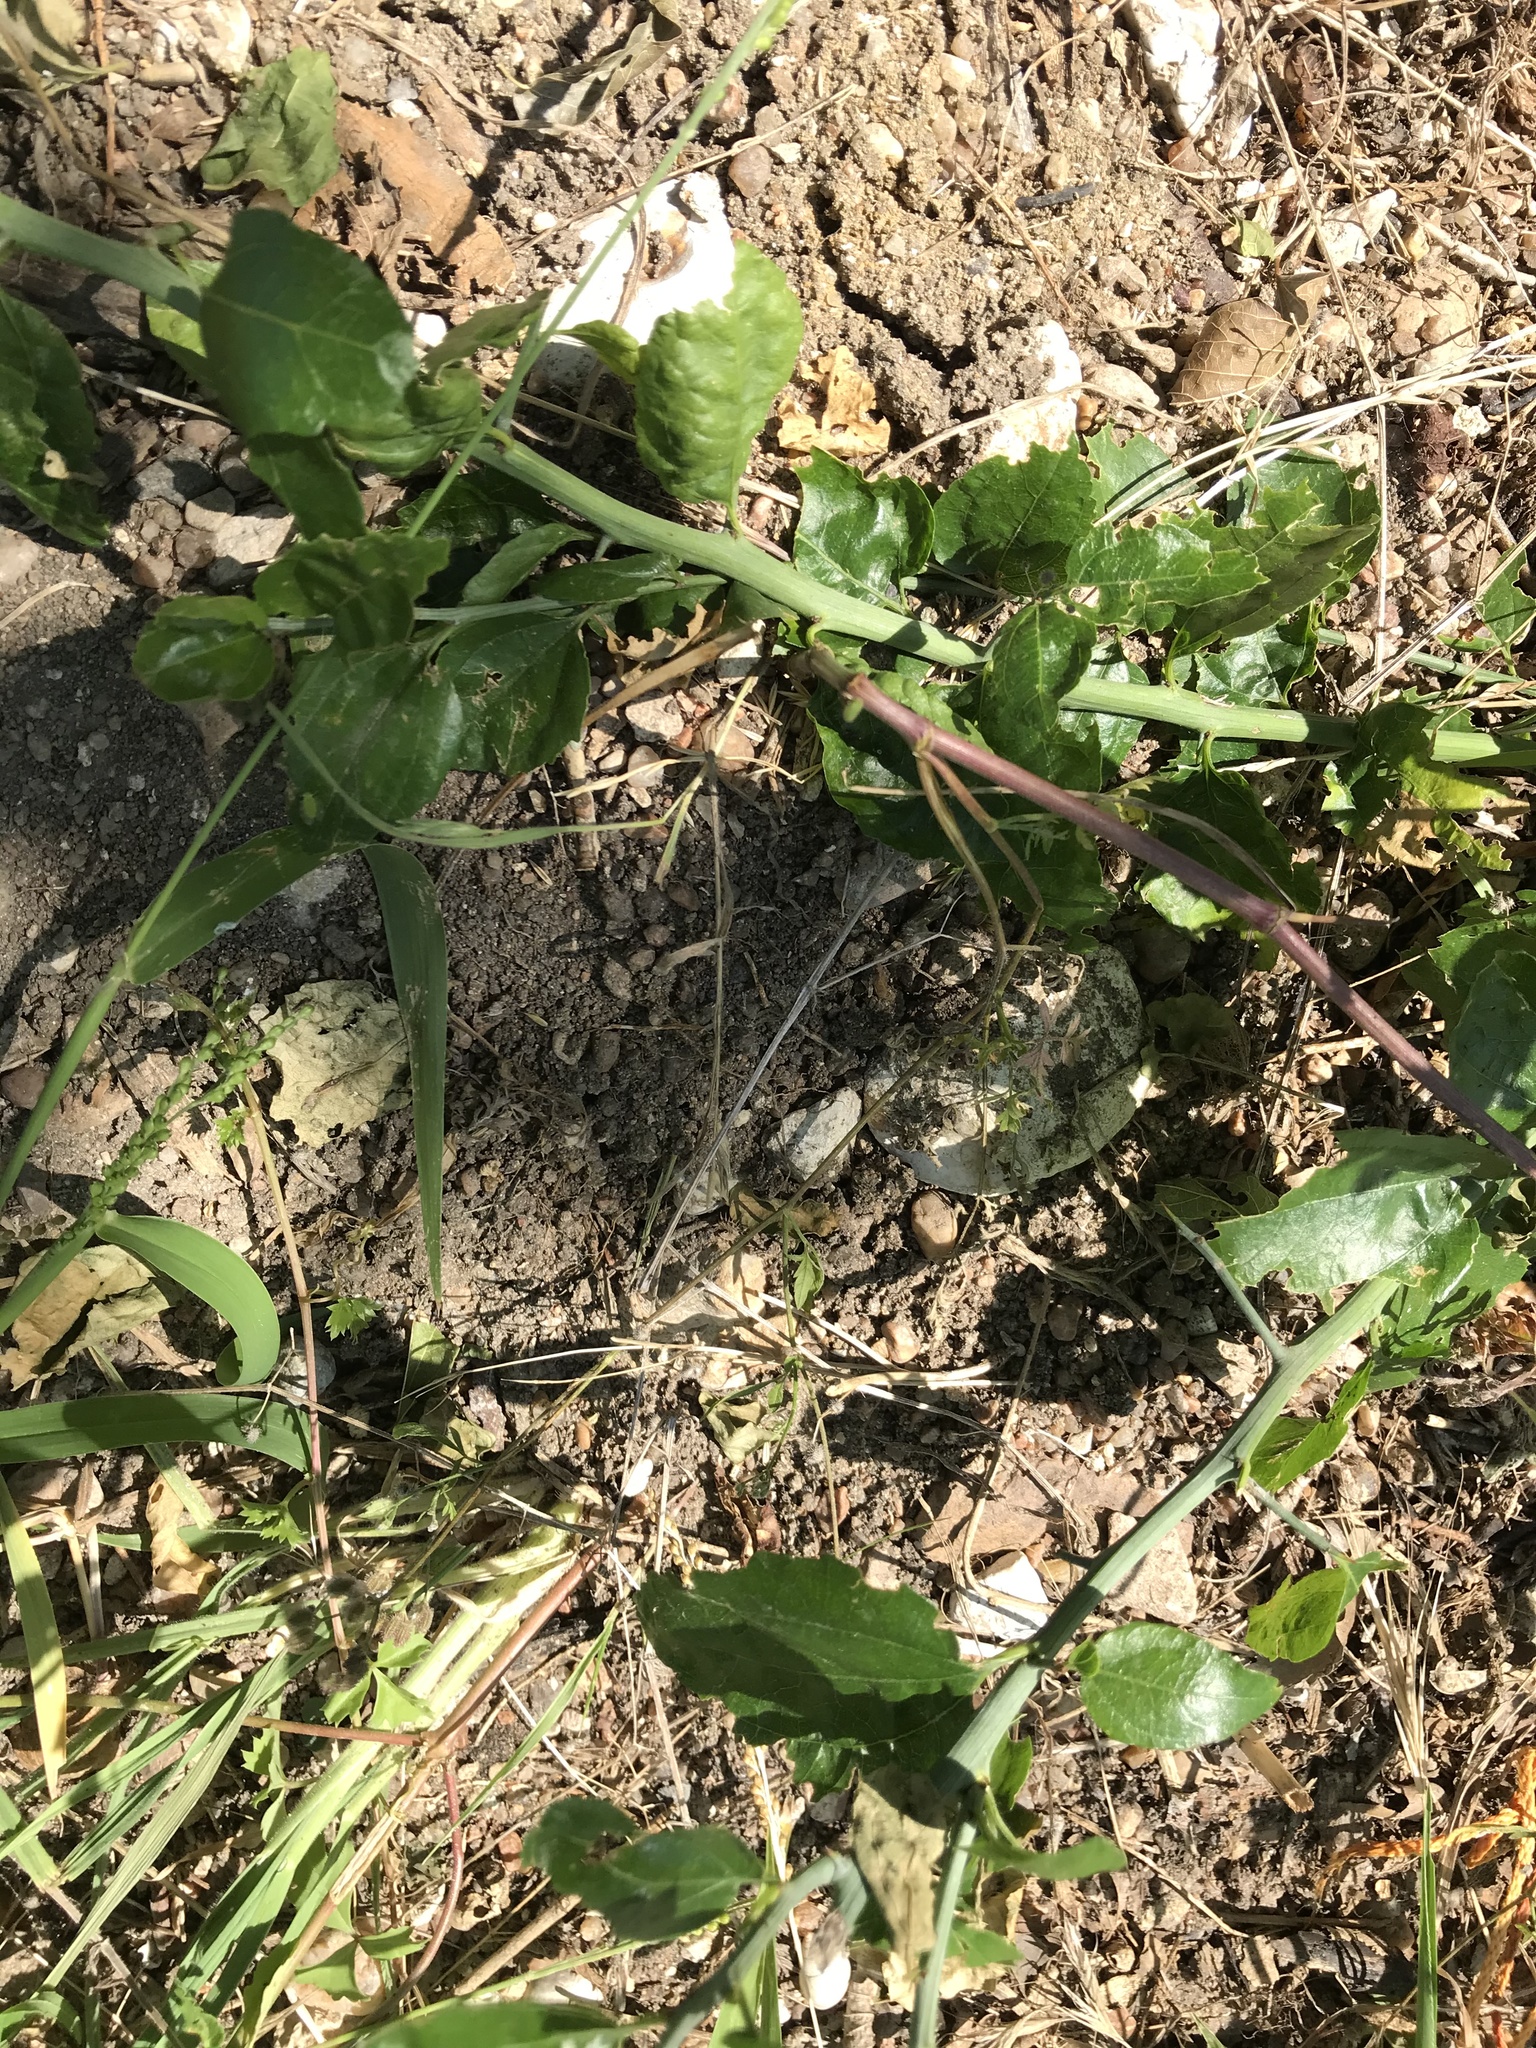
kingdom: Plantae
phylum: Tracheophyta
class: Magnoliopsida
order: Rosales
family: Rhamnaceae
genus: Sarcomphalus
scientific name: Sarcomphalus obtusifolius
